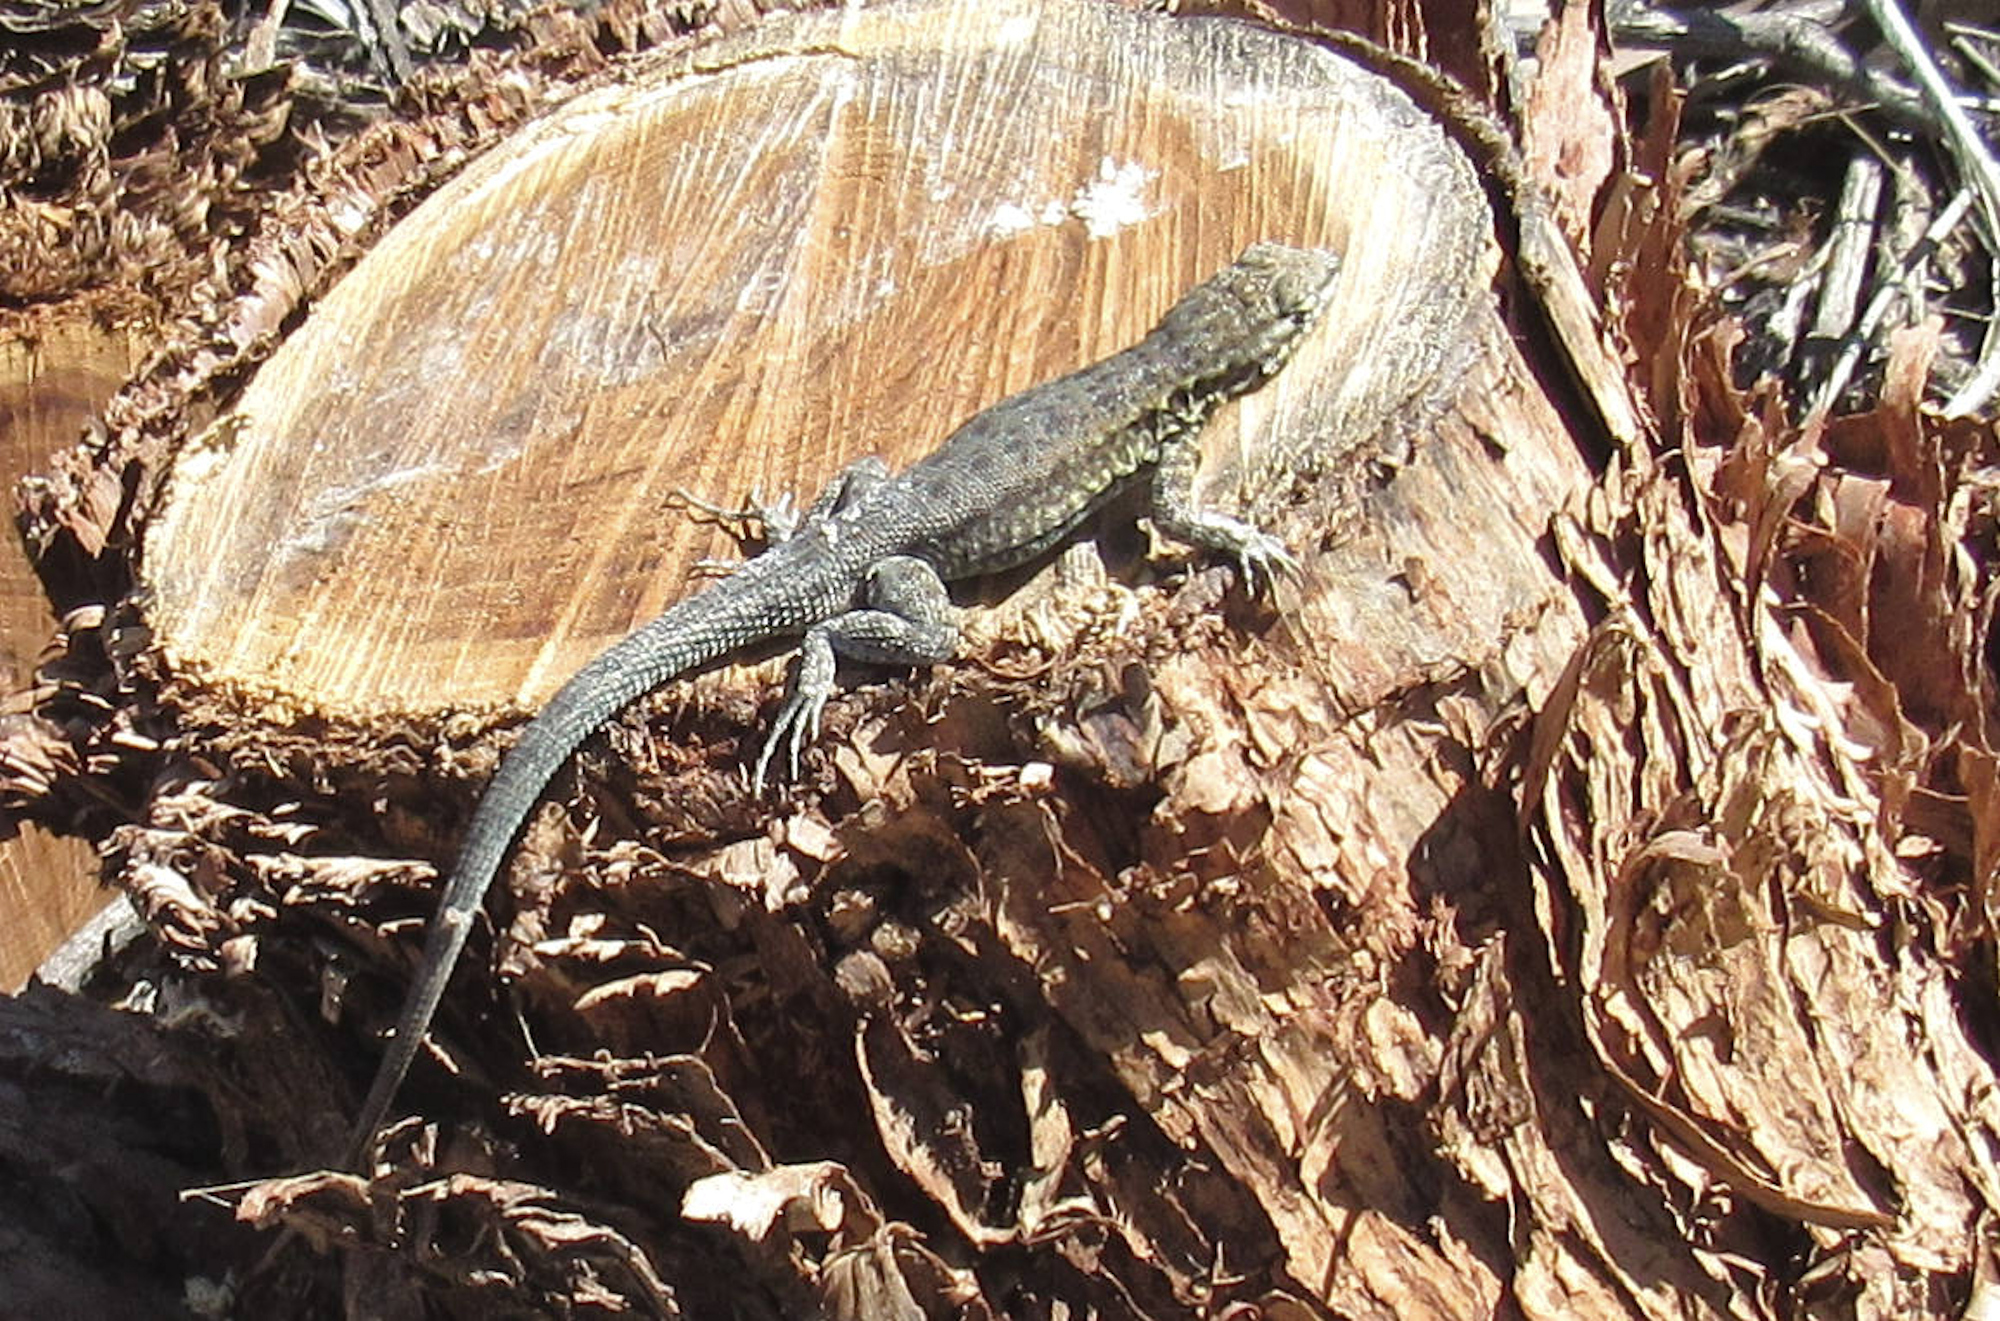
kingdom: Animalia
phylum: Chordata
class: Squamata
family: Phrynosomatidae
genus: Uta
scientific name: Uta stansburiana
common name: Side-blotched lizard
